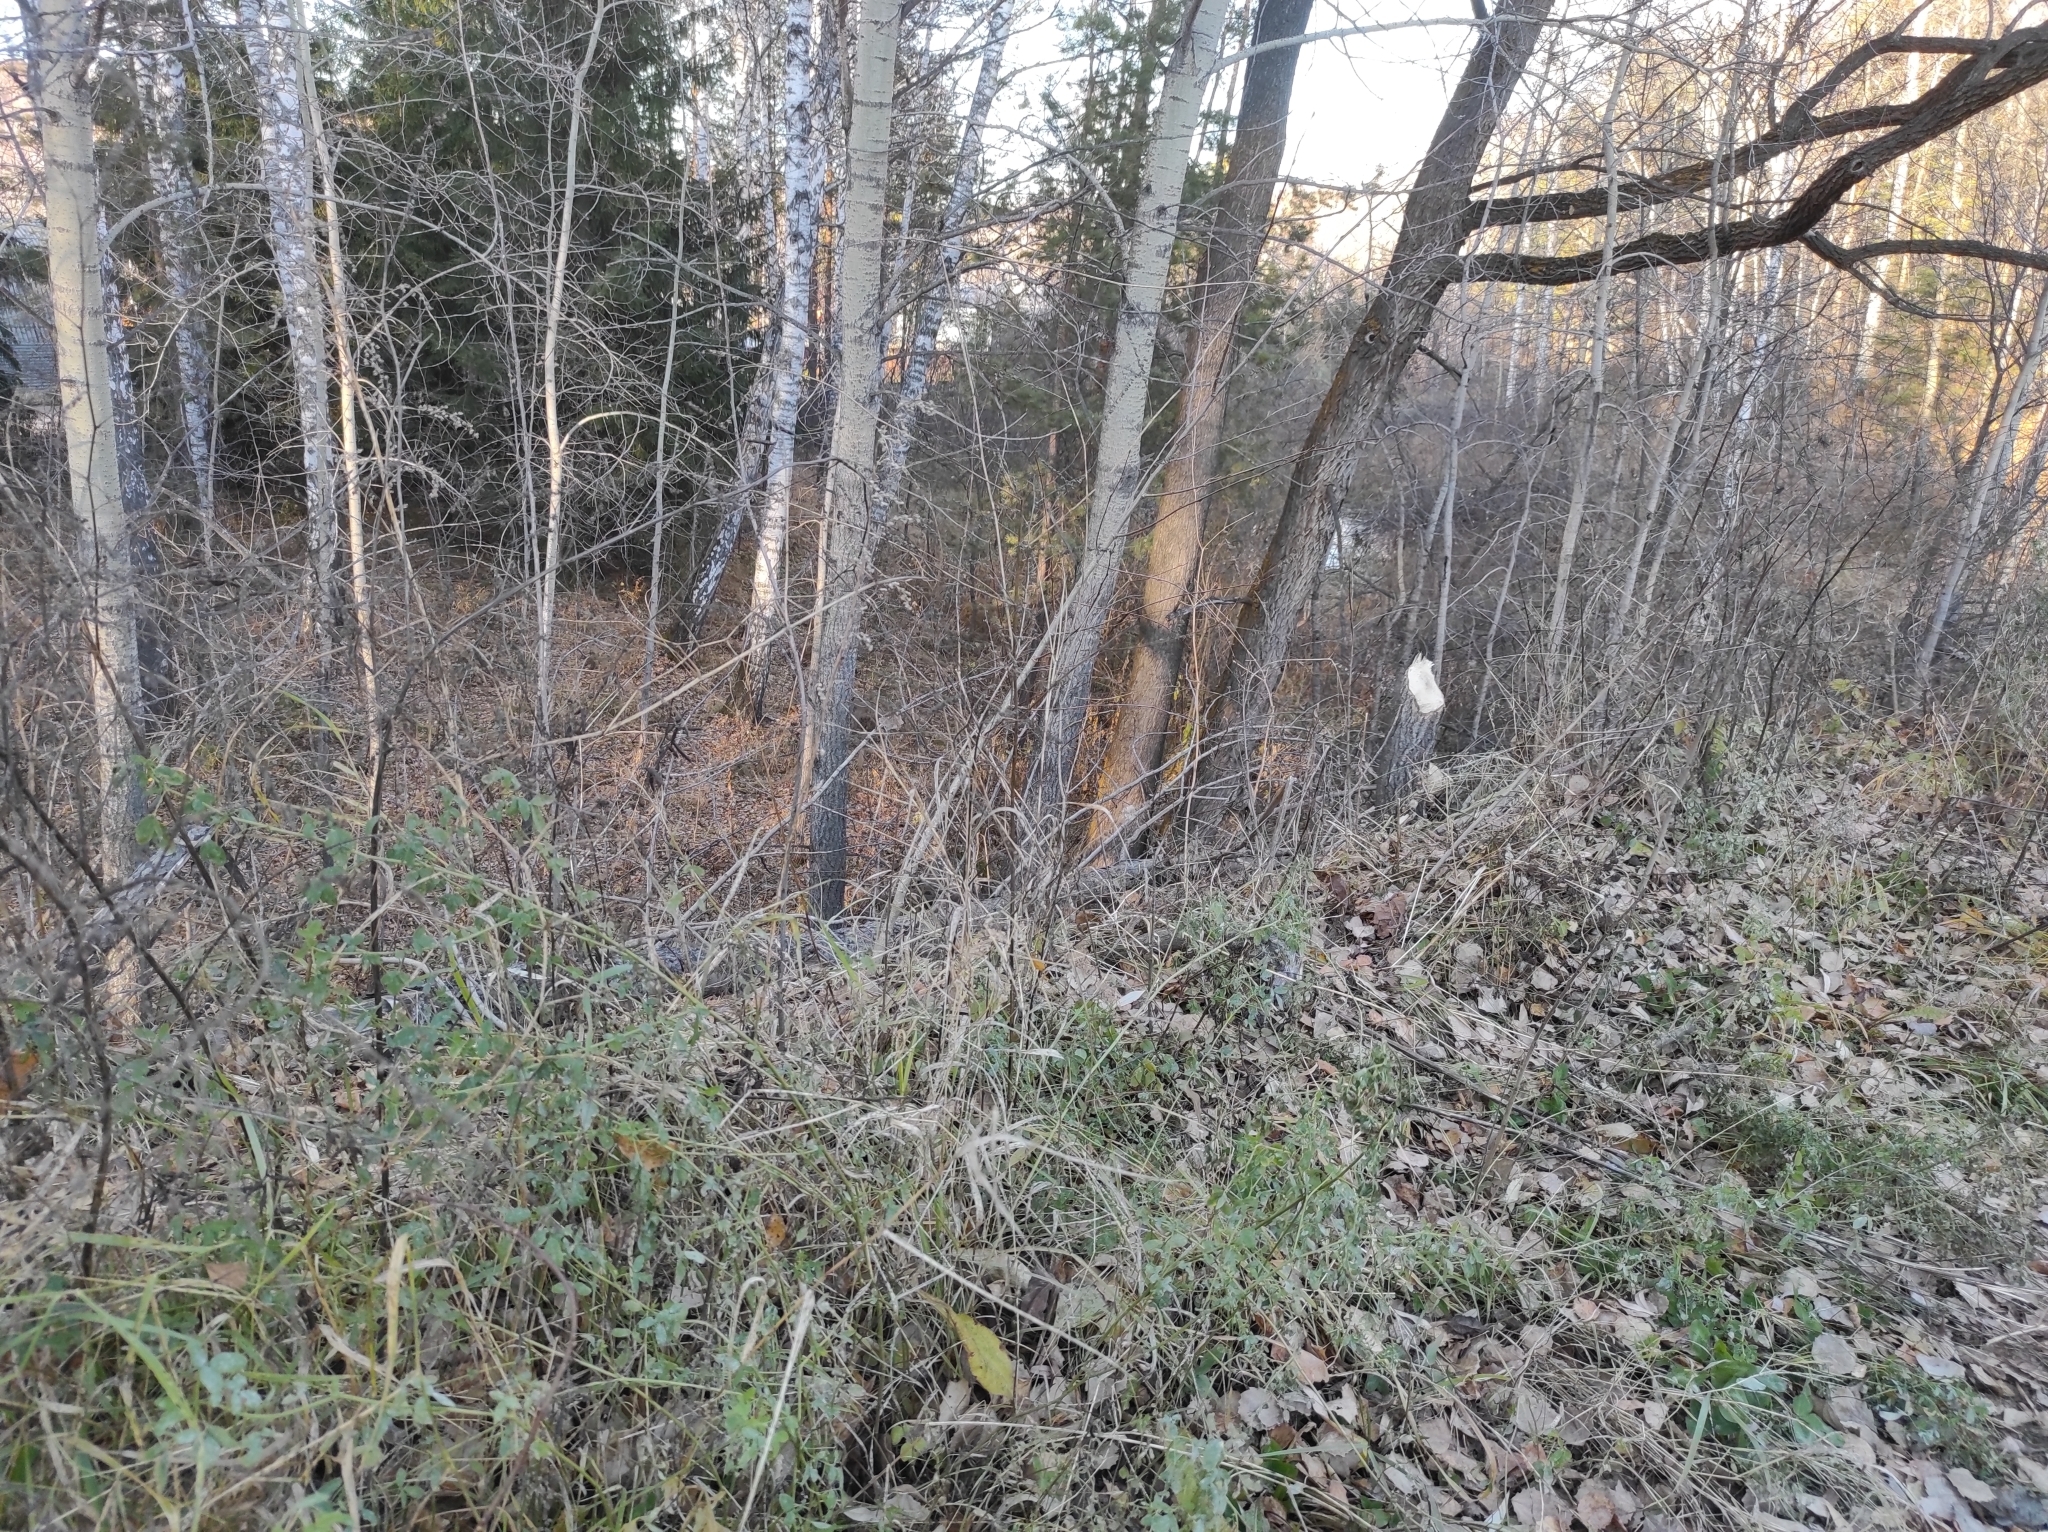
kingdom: Animalia
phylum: Chordata
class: Mammalia
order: Rodentia
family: Castoridae
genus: Castor
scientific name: Castor fiber
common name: Eurasian beaver
